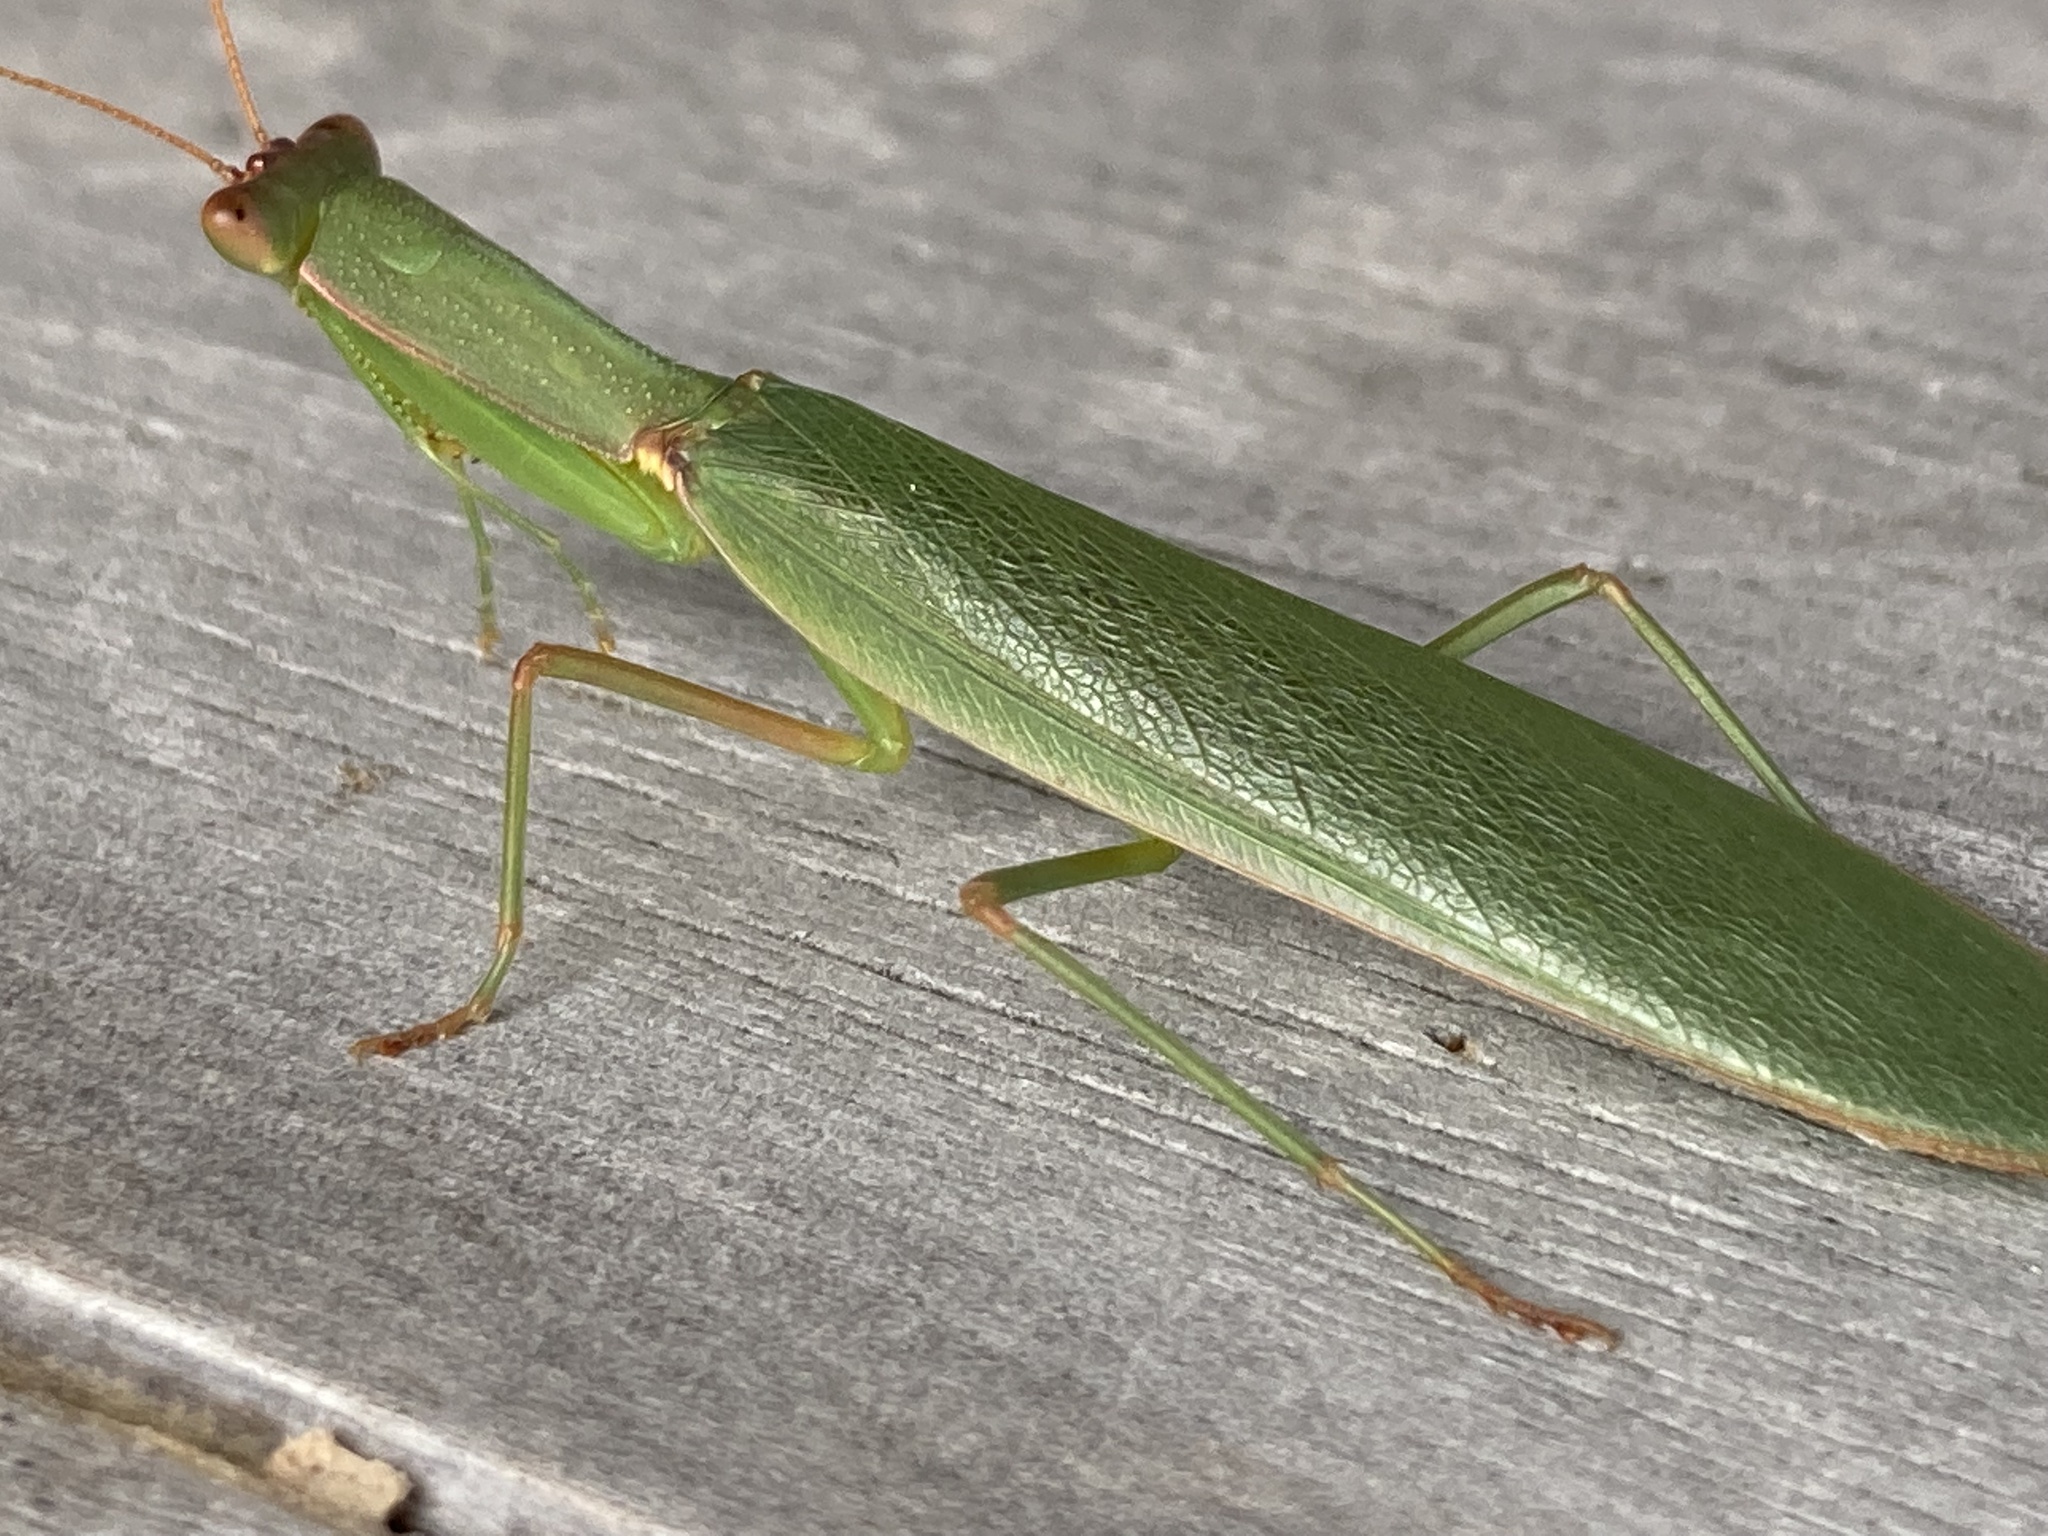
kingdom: Animalia
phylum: Arthropoda
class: Insecta
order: Mantodea
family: Mantidae
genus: Orthodera
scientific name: Orthodera novaezealandiae
